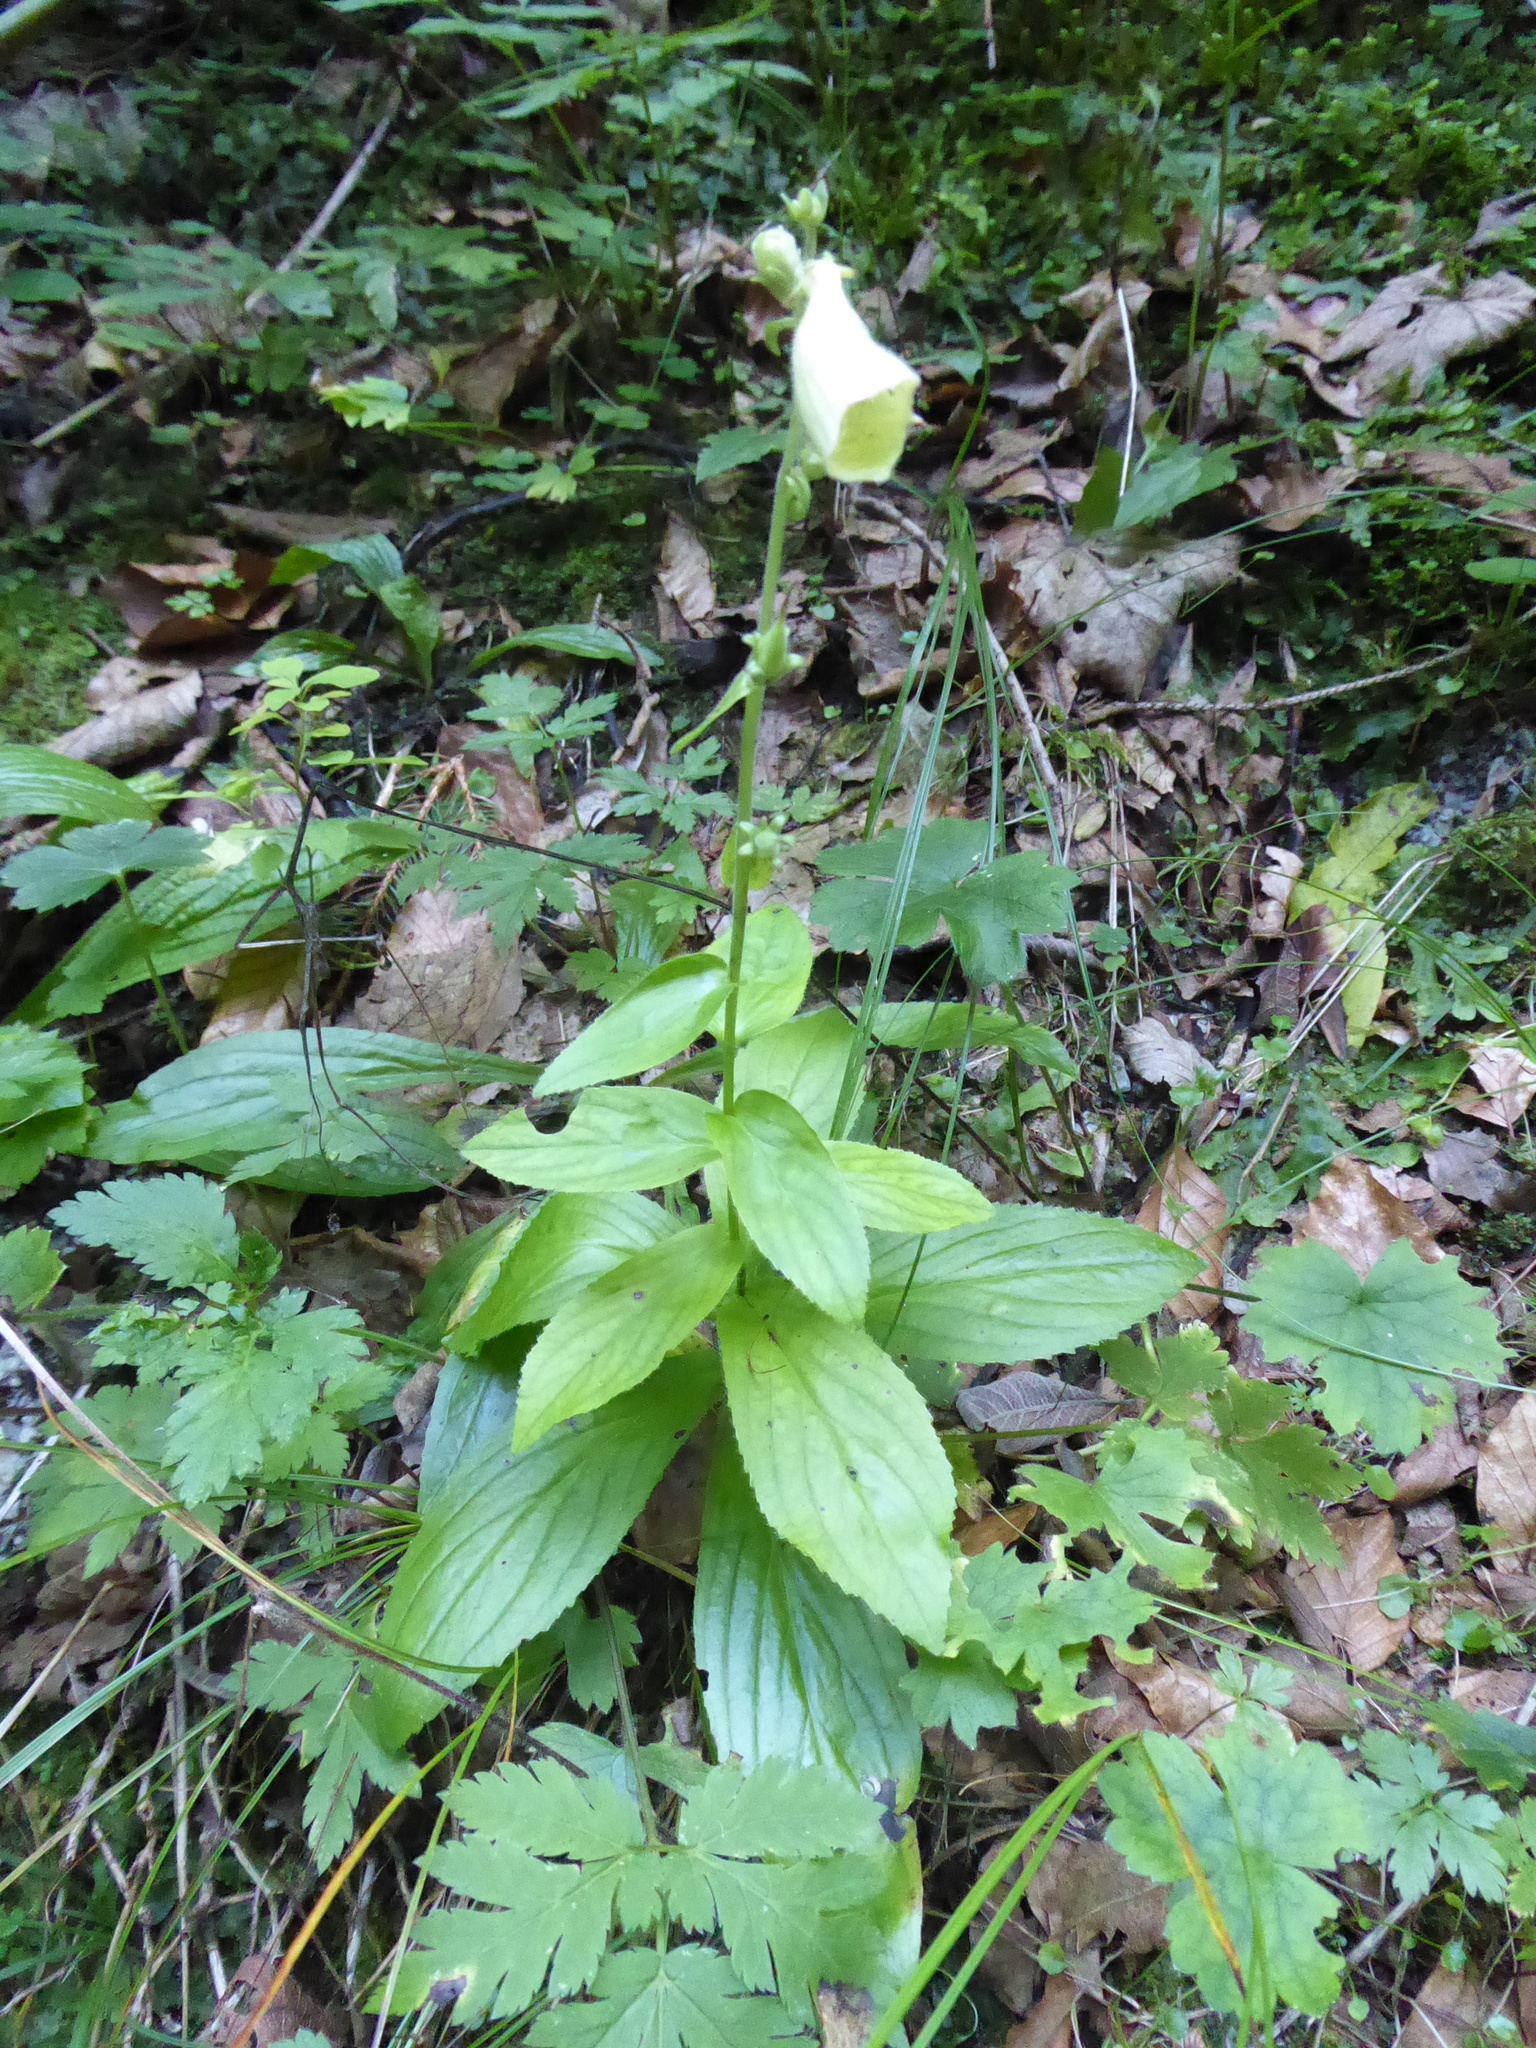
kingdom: Plantae
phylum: Tracheophyta
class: Magnoliopsida
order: Lamiales
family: Plantaginaceae
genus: Digitalis
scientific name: Digitalis grandiflora
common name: Yellow foxglove
